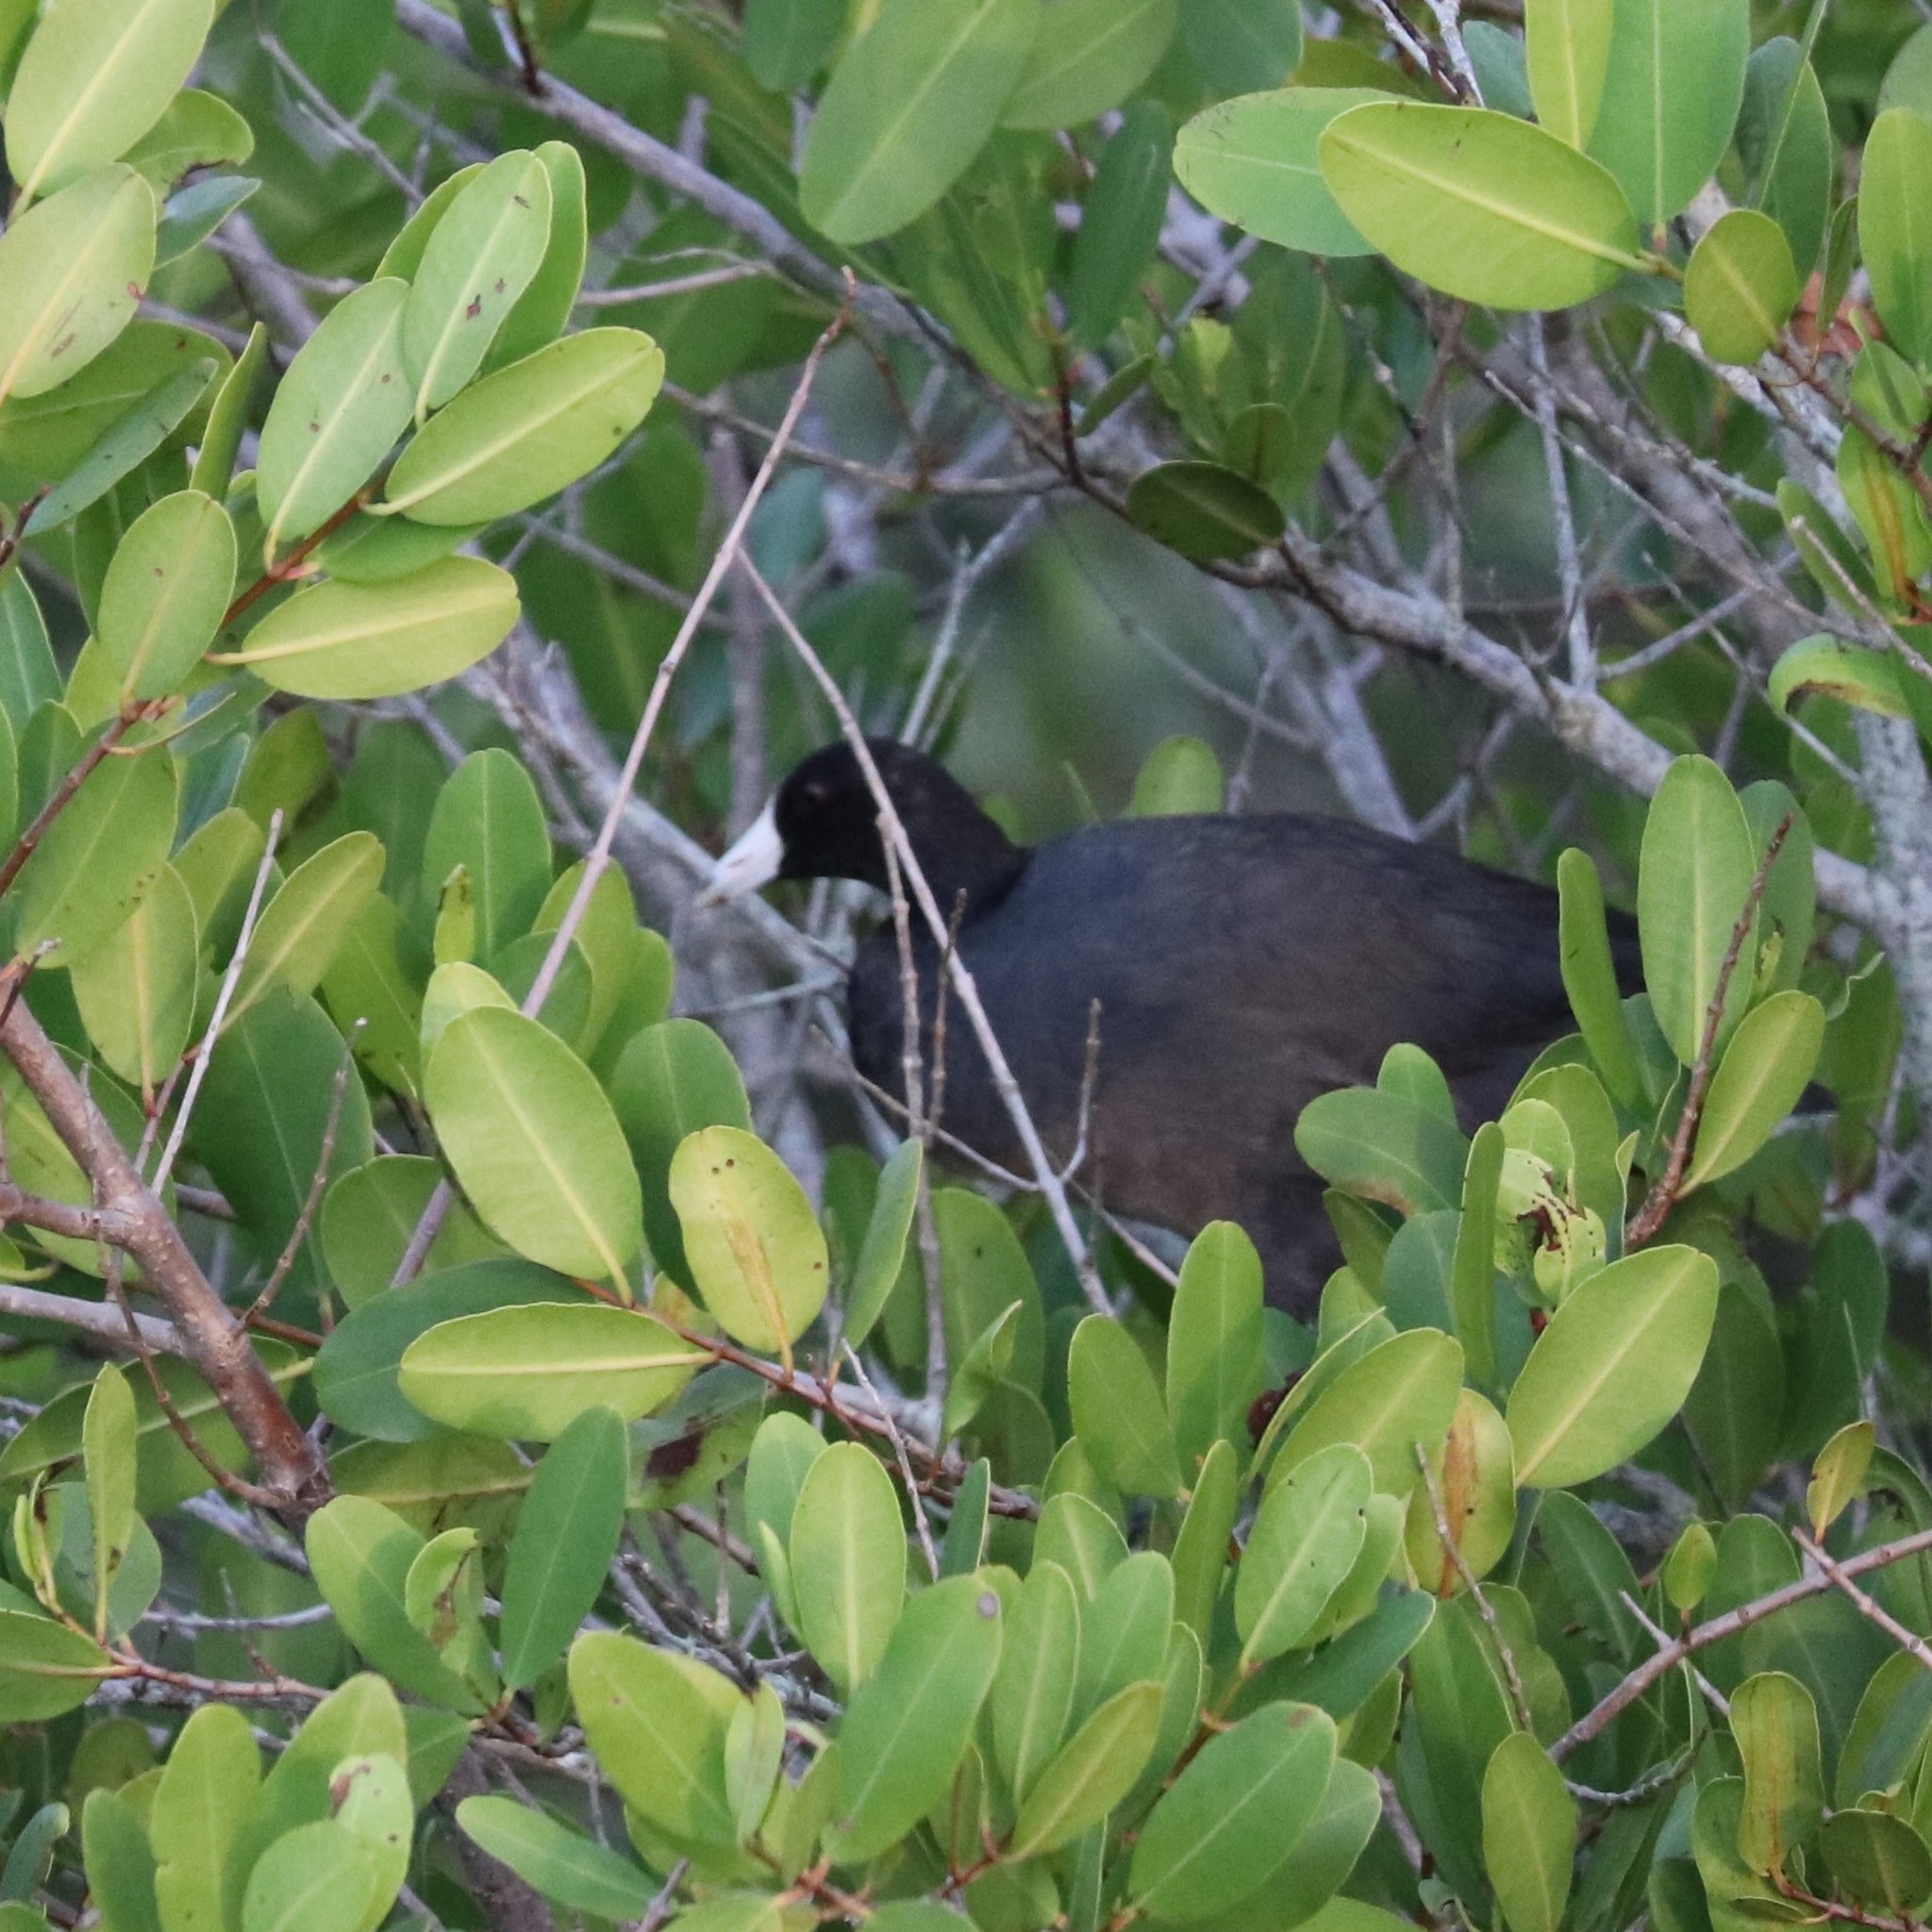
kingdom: Animalia
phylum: Chordata
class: Aves
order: Gruiformes
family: Rallidae
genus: Fulica
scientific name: Fulica americana
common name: American coot
